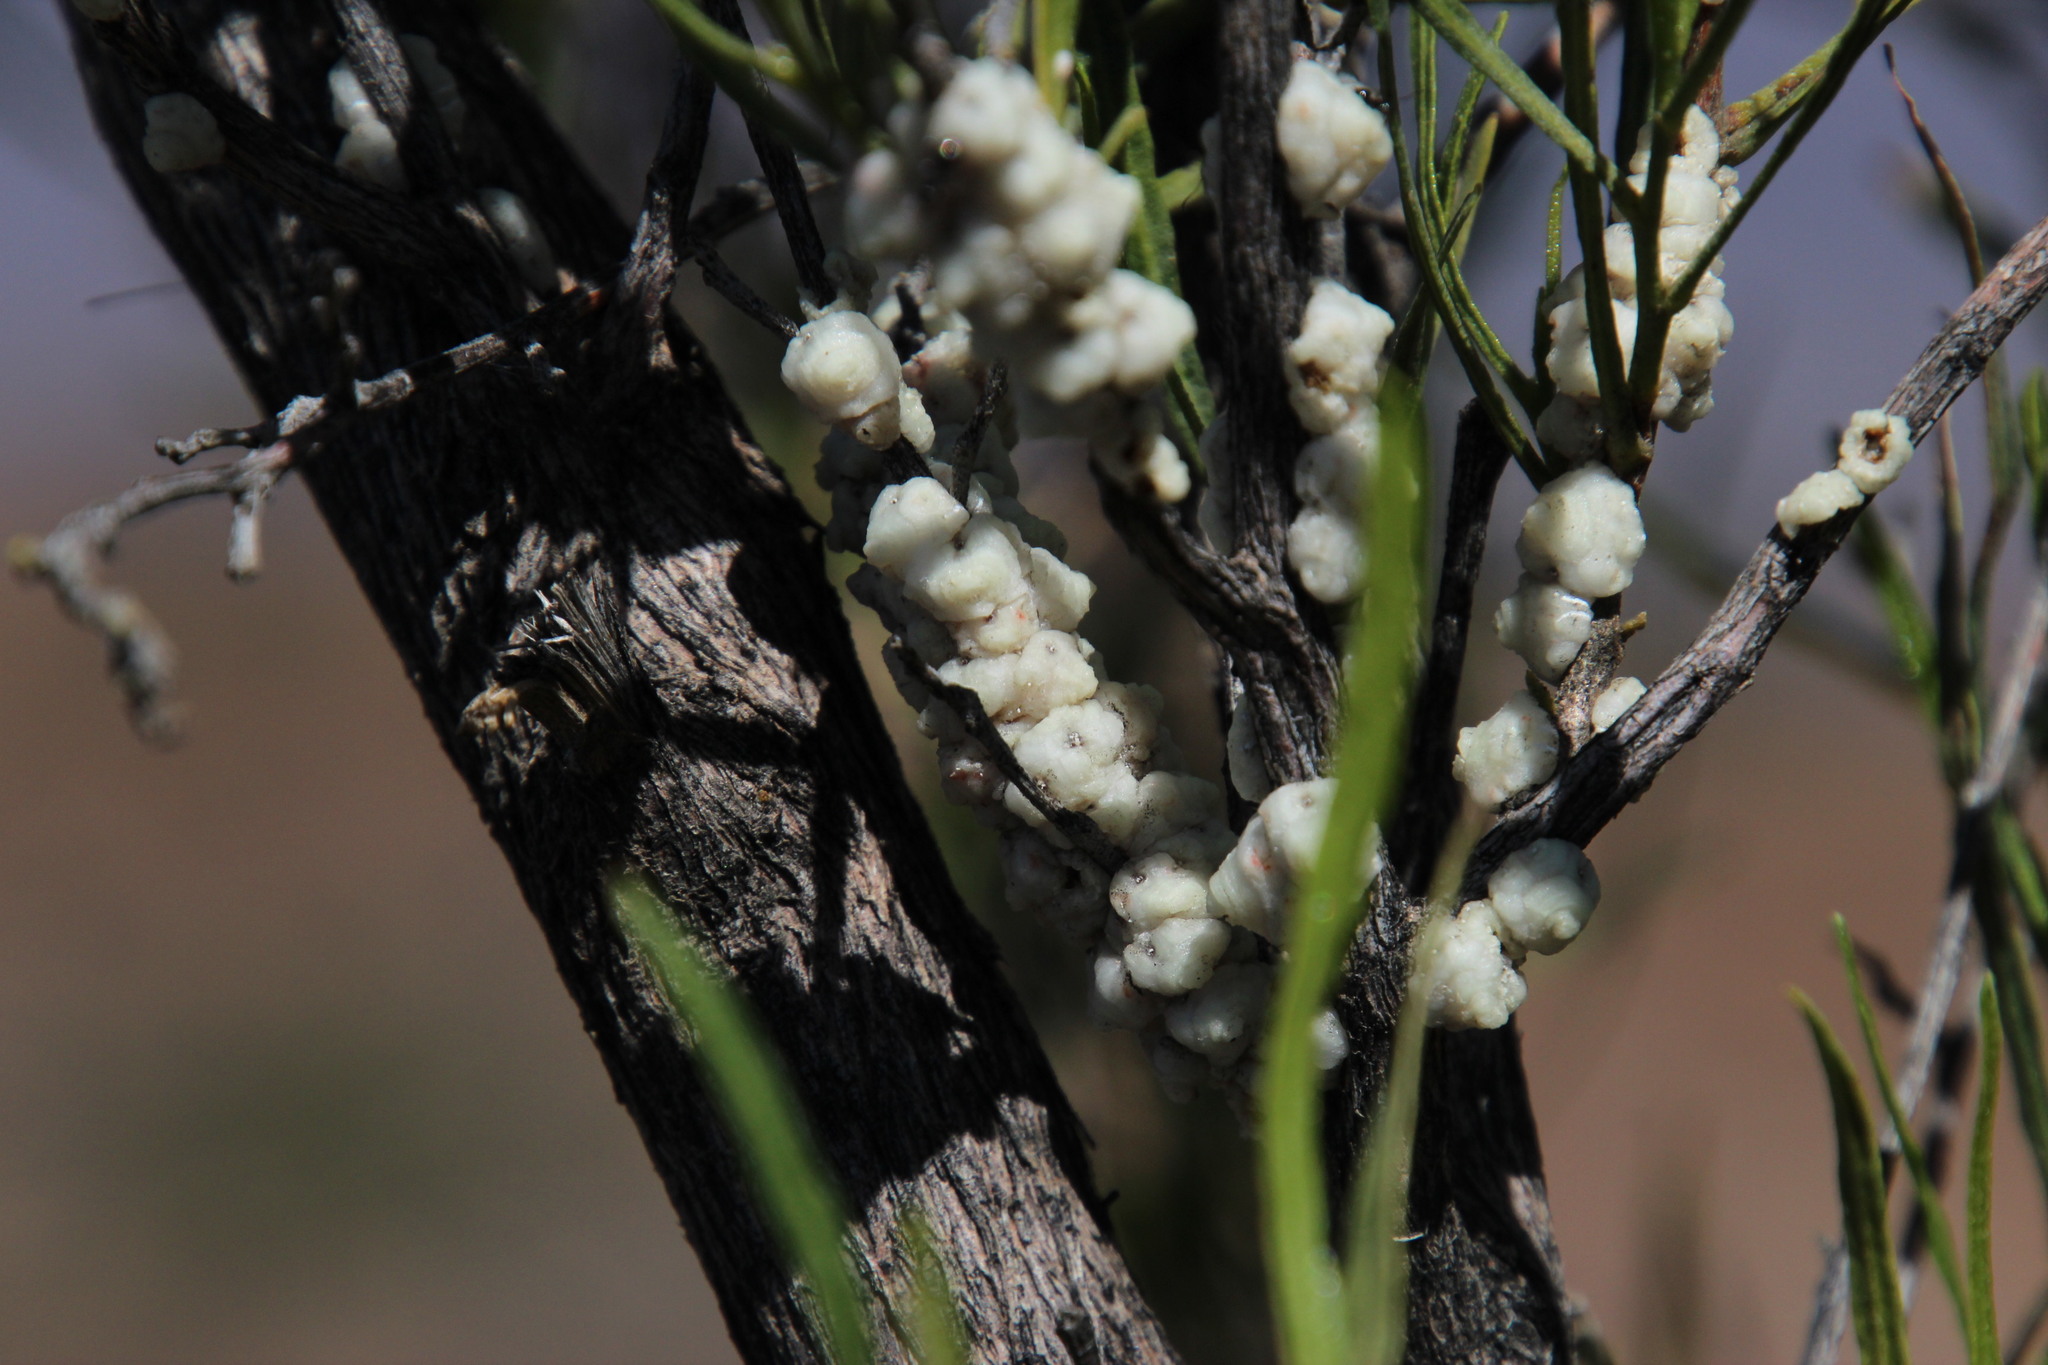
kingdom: Plantae
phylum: Tracheophyta
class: Magnoliopsida
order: Sapindales
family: Sapindaceae
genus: Dodonaea
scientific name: Dodonaea viscosa
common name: Hopbush
